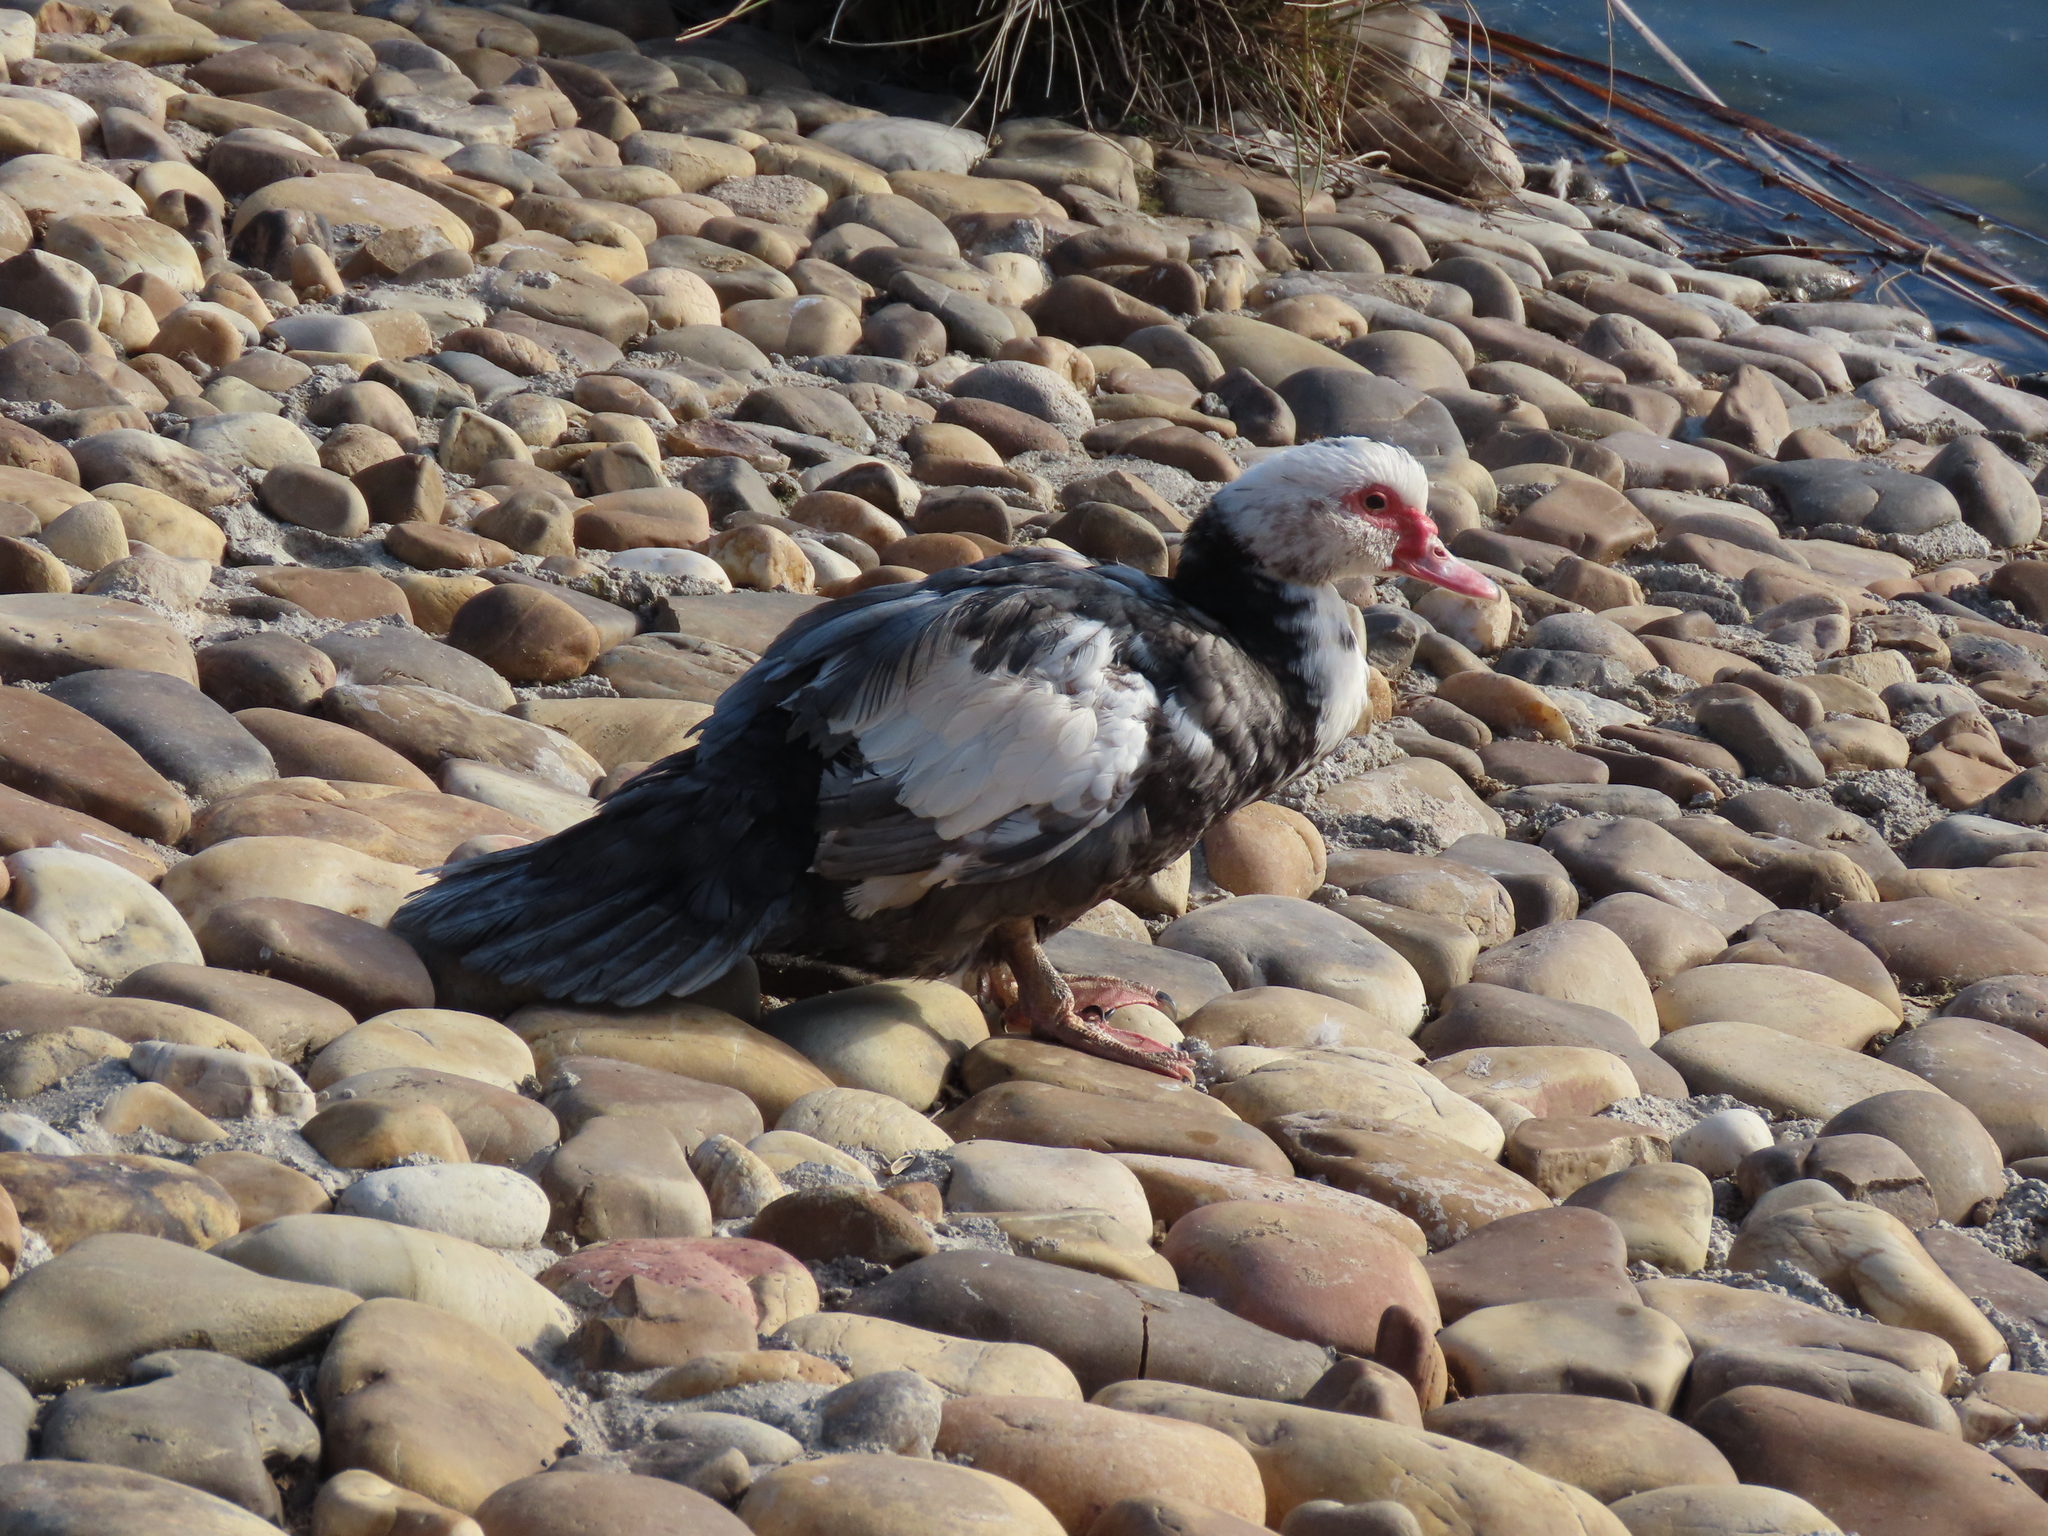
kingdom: Animalia
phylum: Chordata
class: Aves
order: Anseriformes
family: Anatidae
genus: Cairina
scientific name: Cairina moschata
